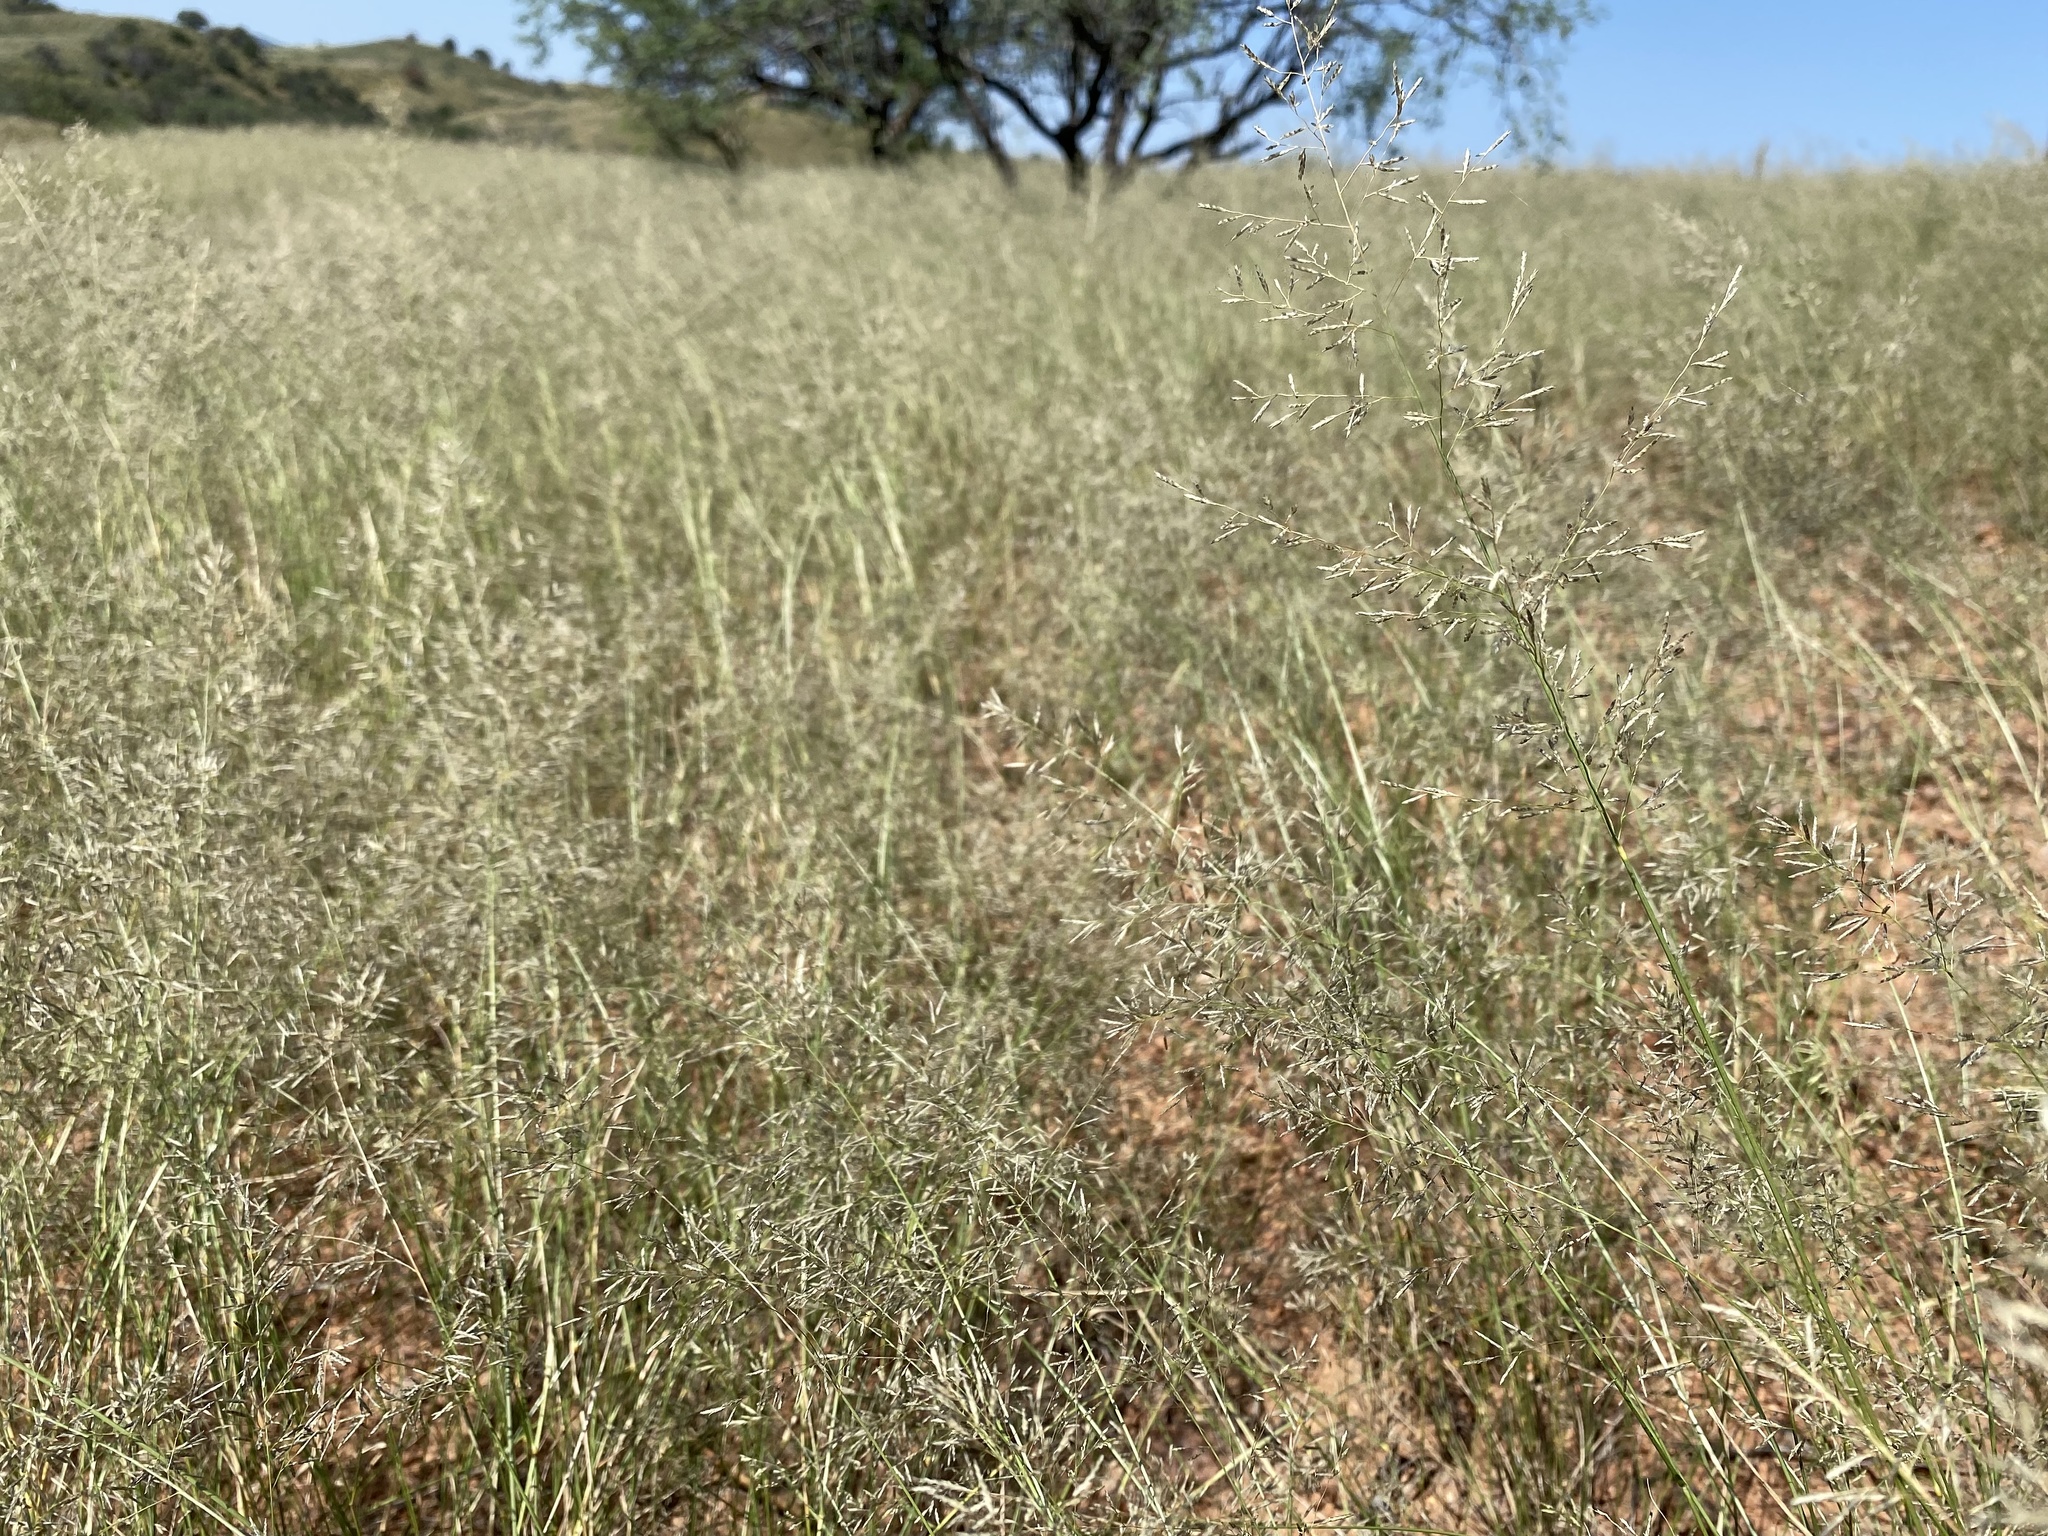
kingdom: Plantae
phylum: Tracheophyta
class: Liliopsida
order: Poales
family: Poaceae
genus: Eragrostis
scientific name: Eragrostis lehmanniana
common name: Lehmann lovegrass
